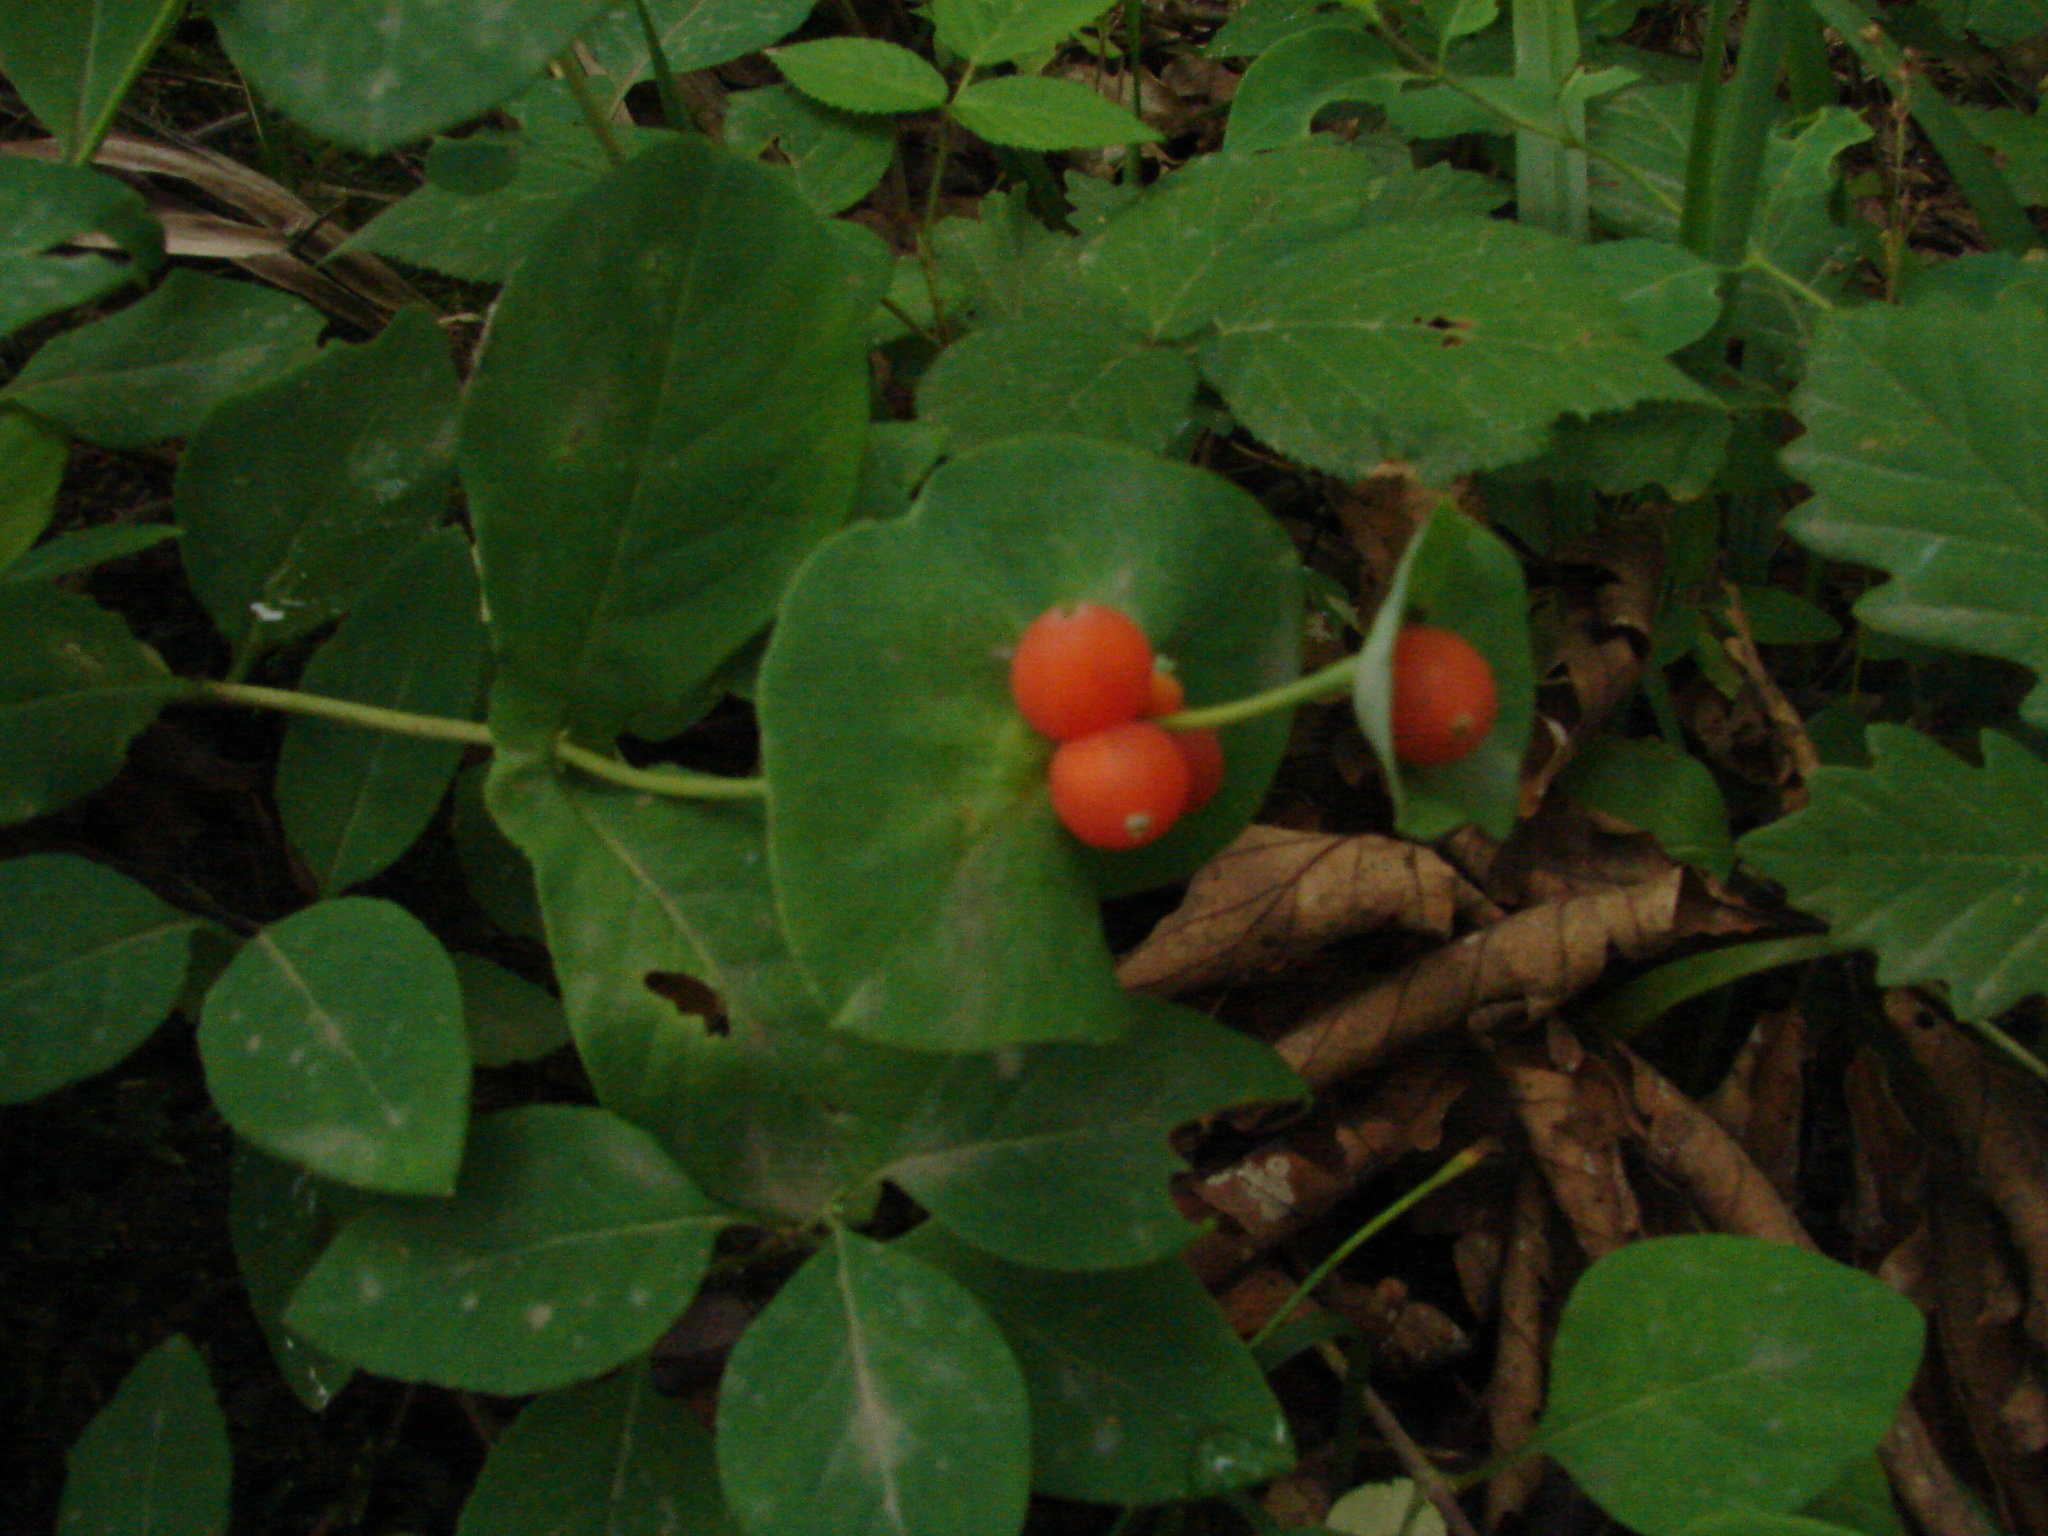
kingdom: Plantae
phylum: Tracheophyta
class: Magnoliopsida
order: Dipsacales
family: Caprifoliaceae
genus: Lonicera
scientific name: Lonicera caprifolium
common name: Perfoliate honeysuckle
